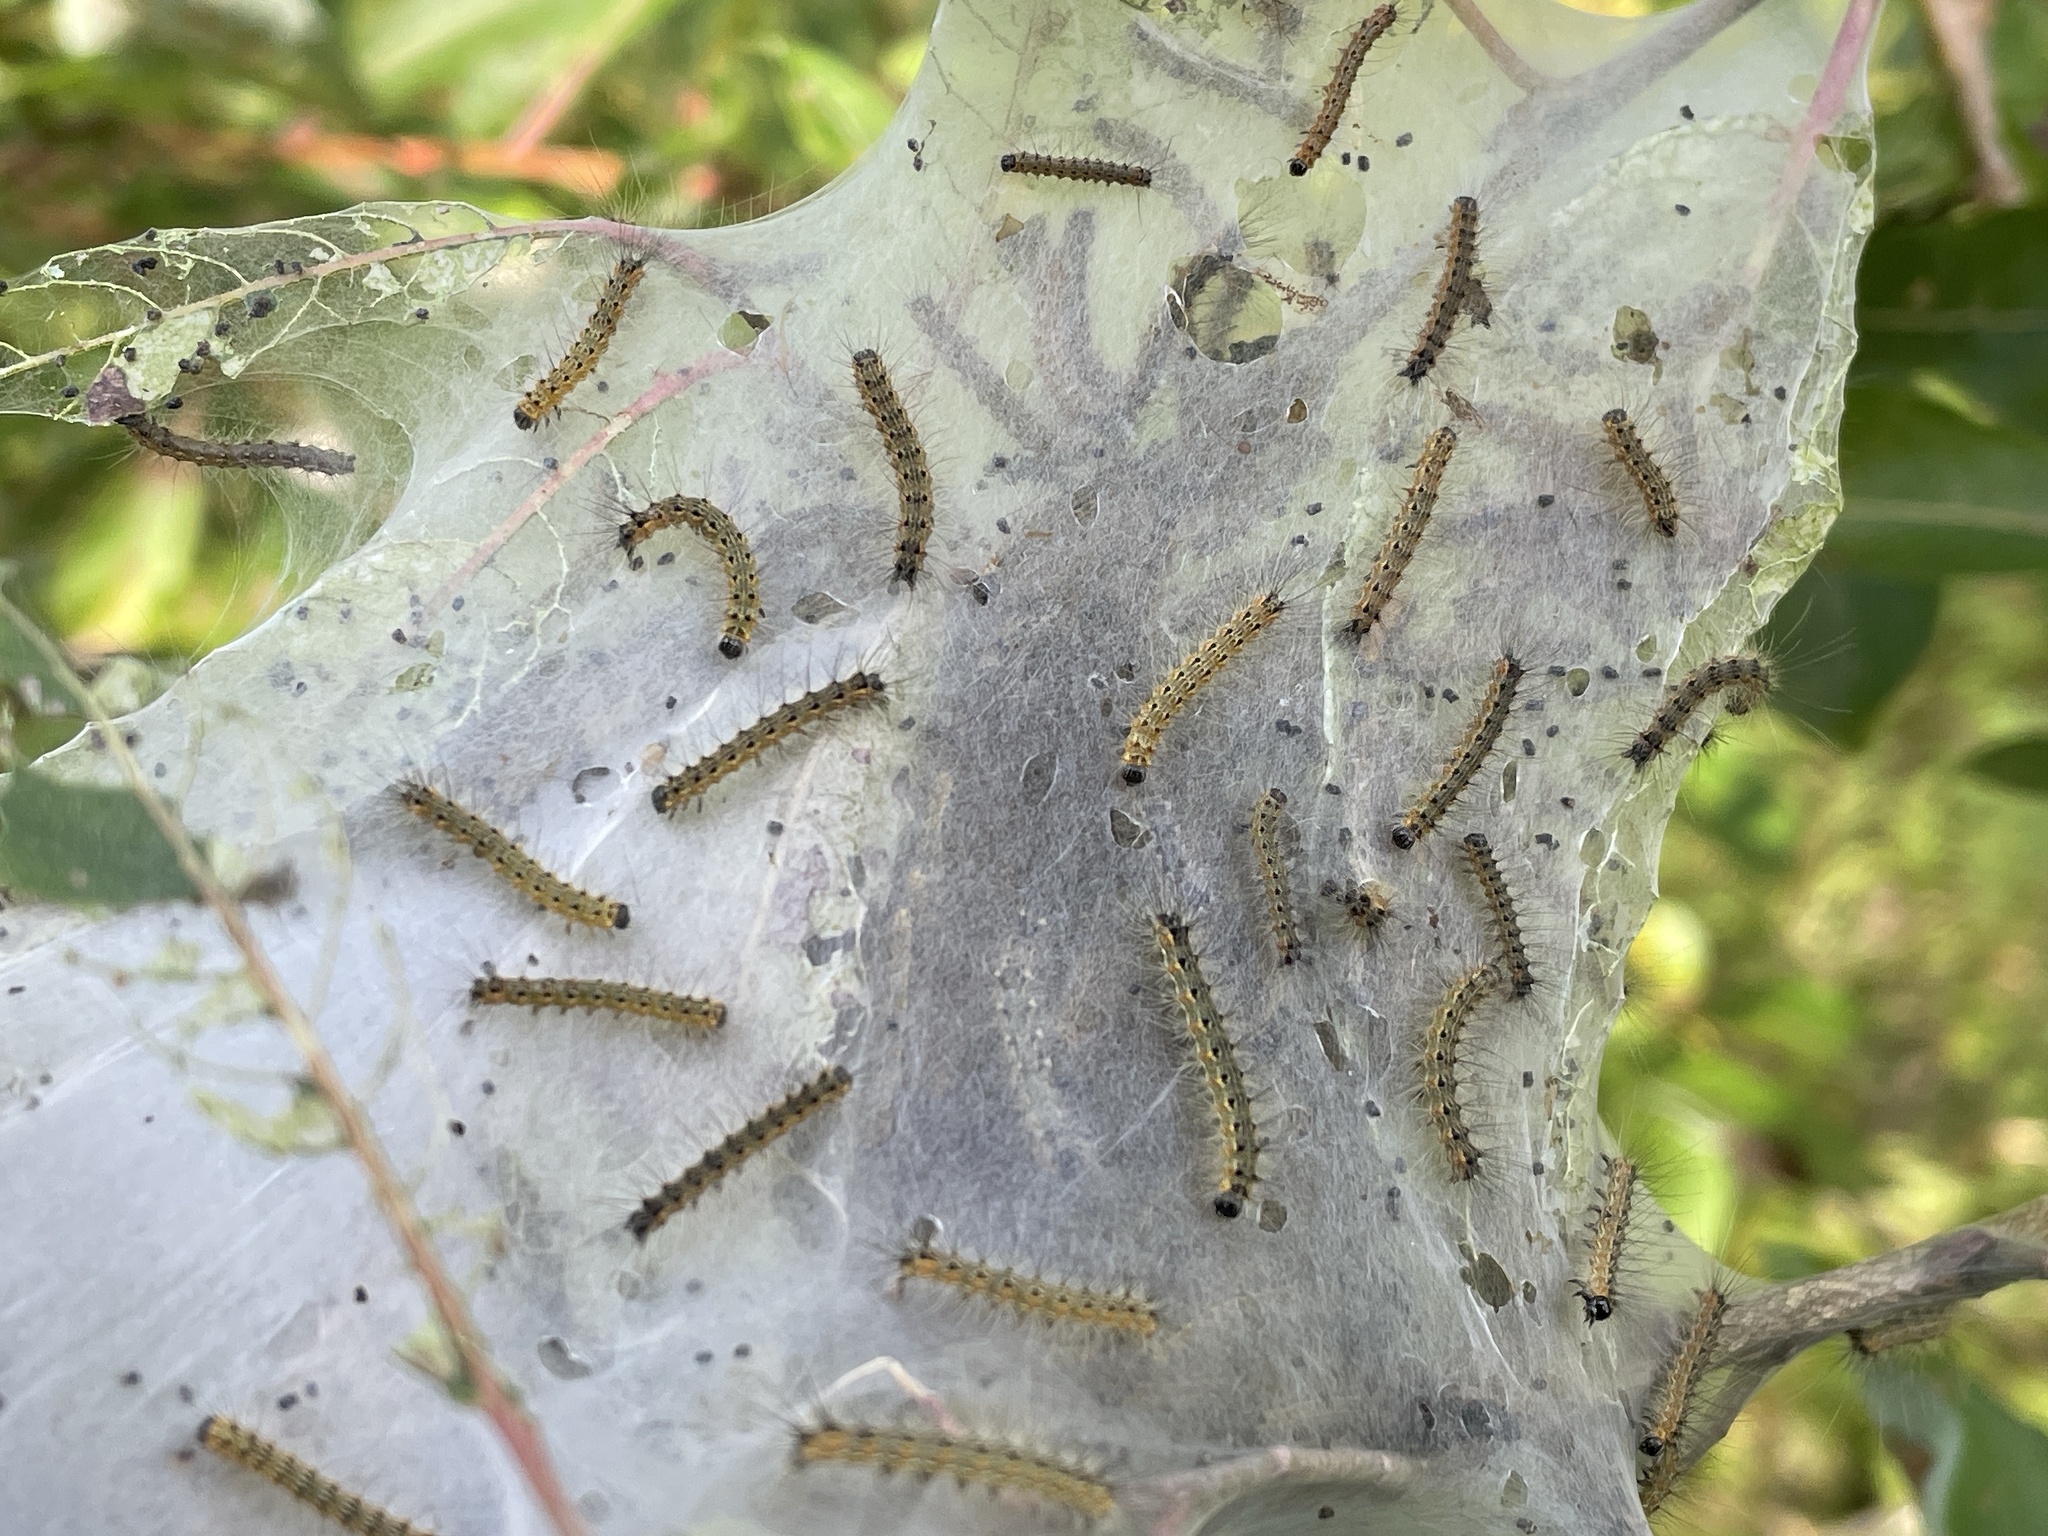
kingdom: Animalia
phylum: Arthropoda
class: Insecta
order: Lepidoptera
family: Erebidae
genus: Hyphantria
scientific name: Hyphantria cunea
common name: American white moth
